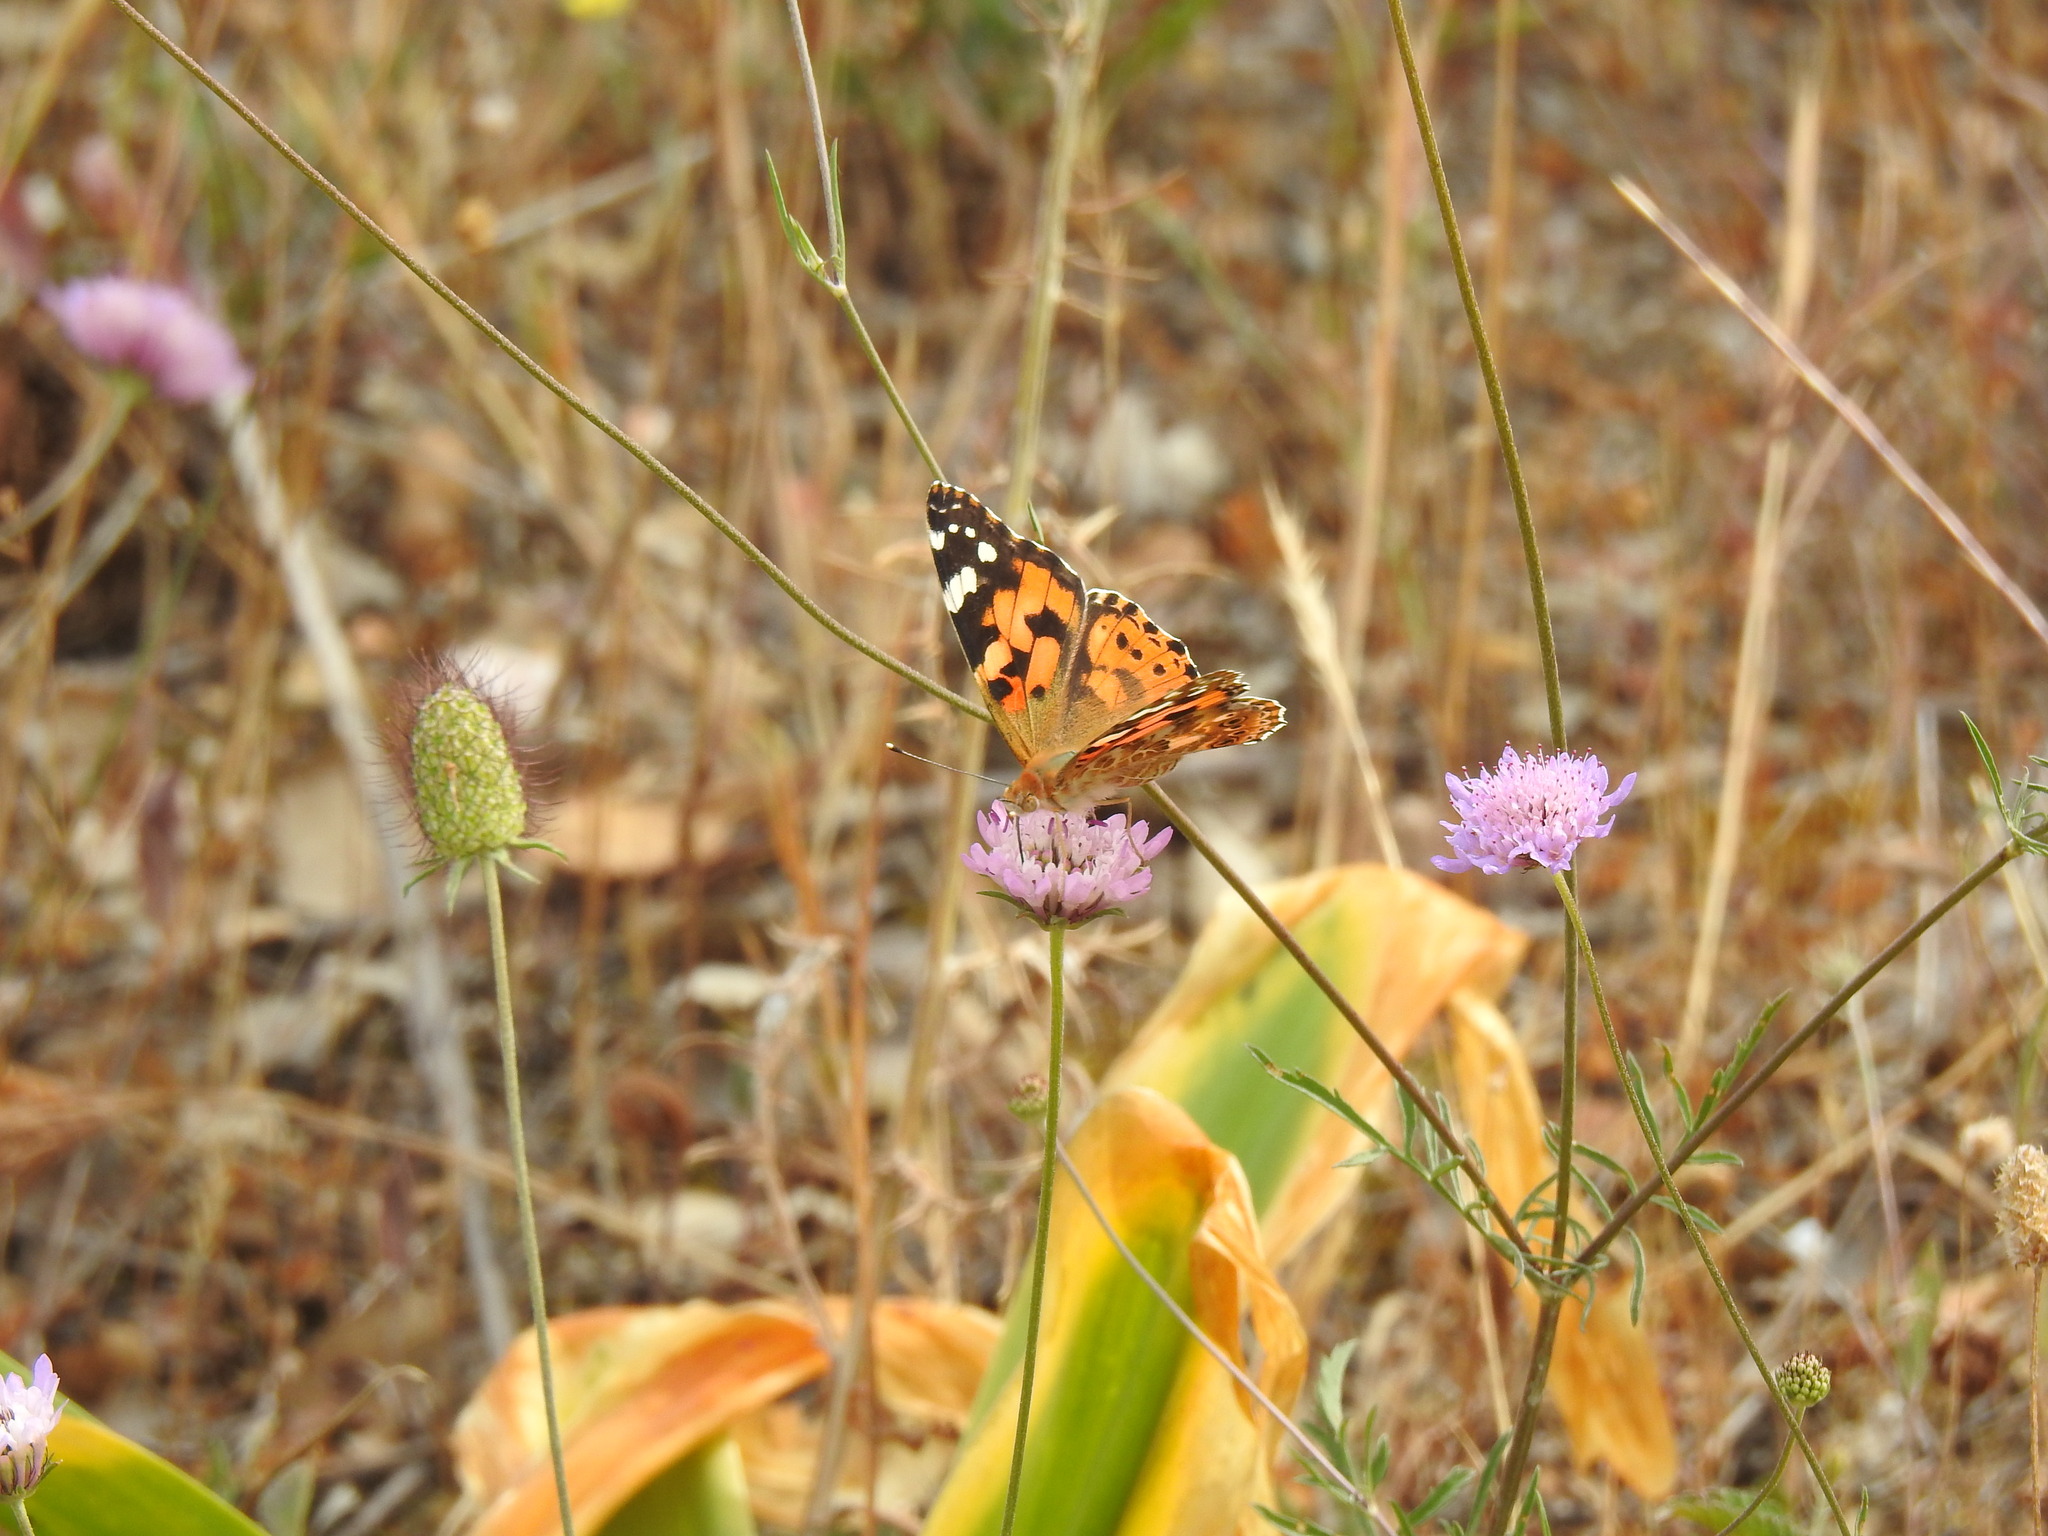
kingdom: Animalia
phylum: Arthropoda
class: Insecta
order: Lepidoptera
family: Nymphalidae
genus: Vanessa
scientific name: Vanessa cardui
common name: Painted lady
